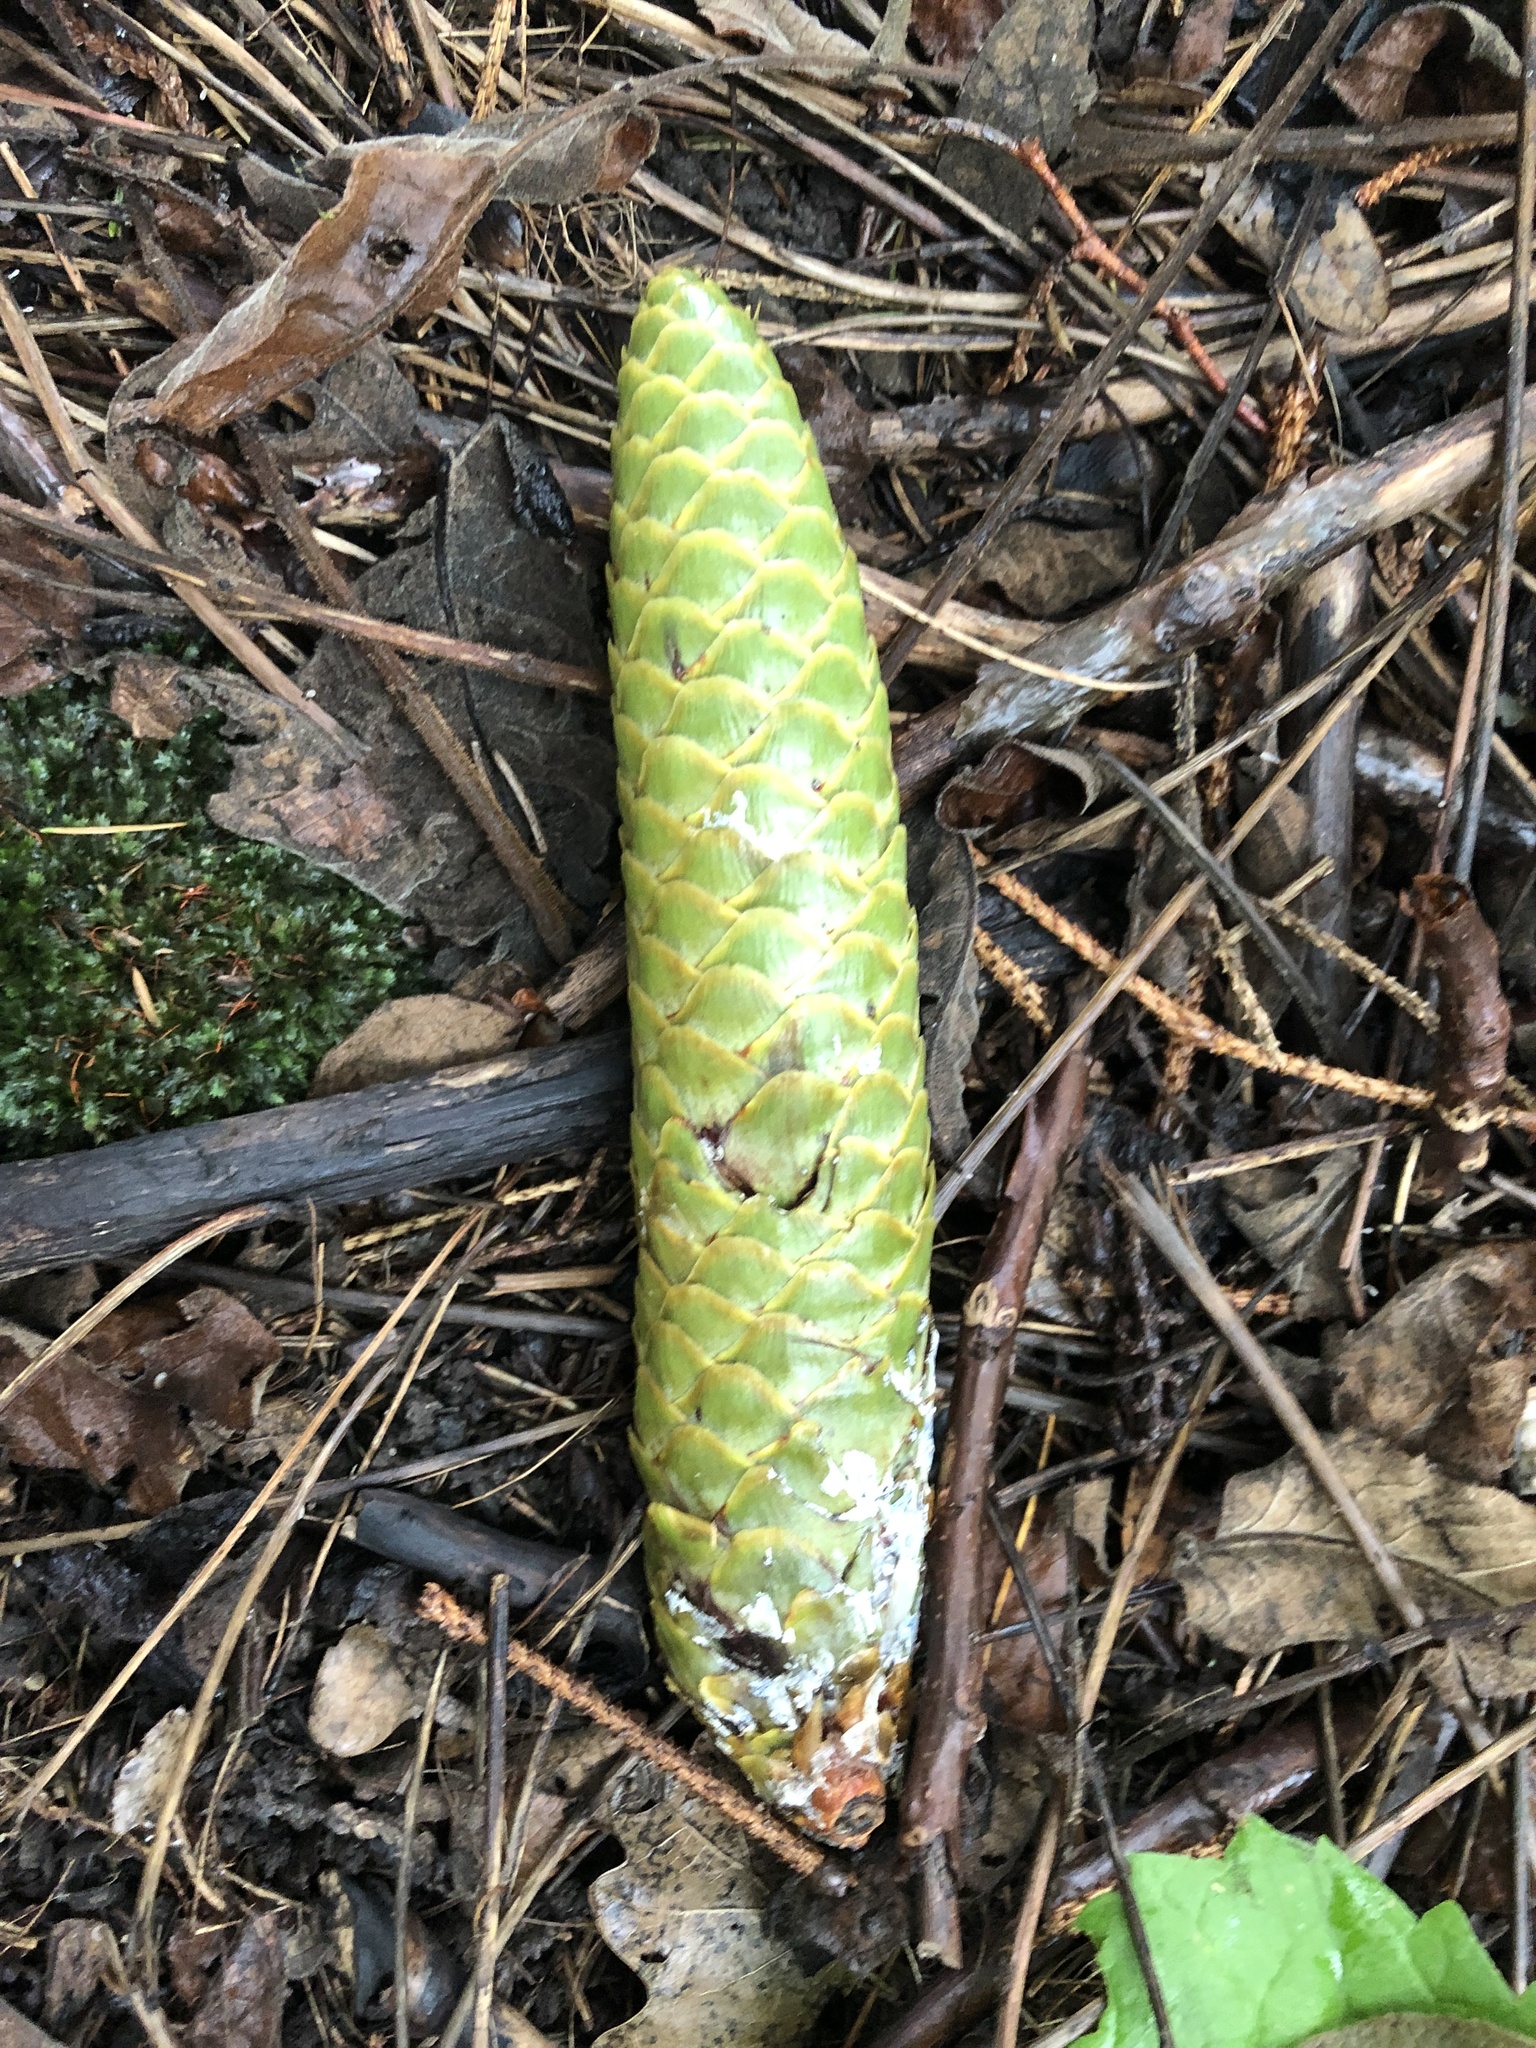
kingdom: Plantae
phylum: Tracheophyta
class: Pinopsida
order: Pinales
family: Pinaceae
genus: Picea
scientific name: Picea abies
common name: Norway spruce
